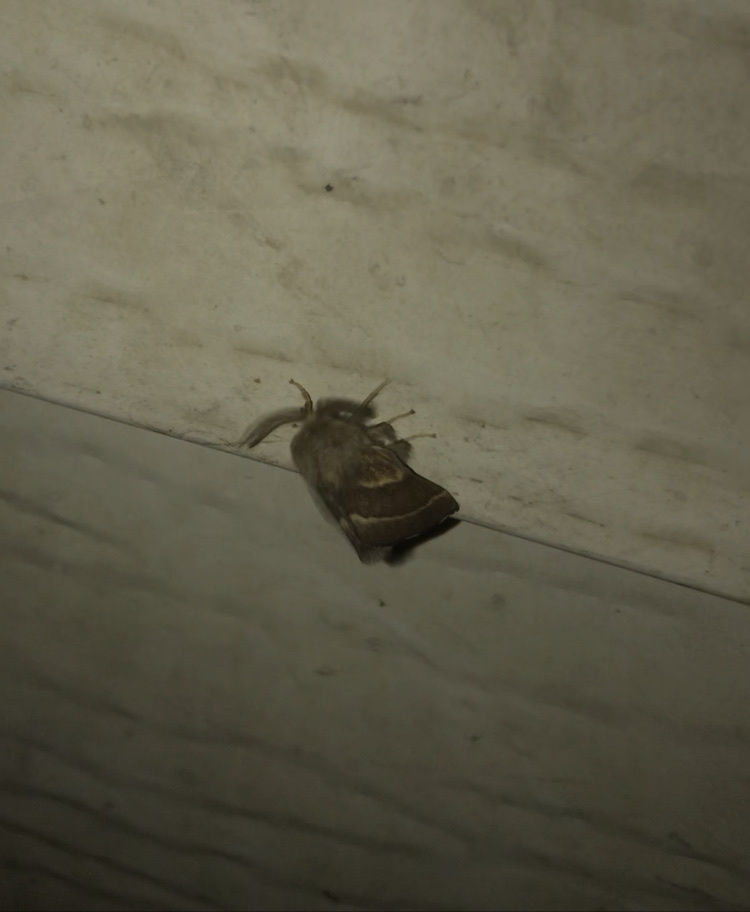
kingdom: Animalia
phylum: Arthropoda
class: Insecta
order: Lepidoptera
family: Lasiocampidae
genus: Malacosoma
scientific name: Malacosoma californica
